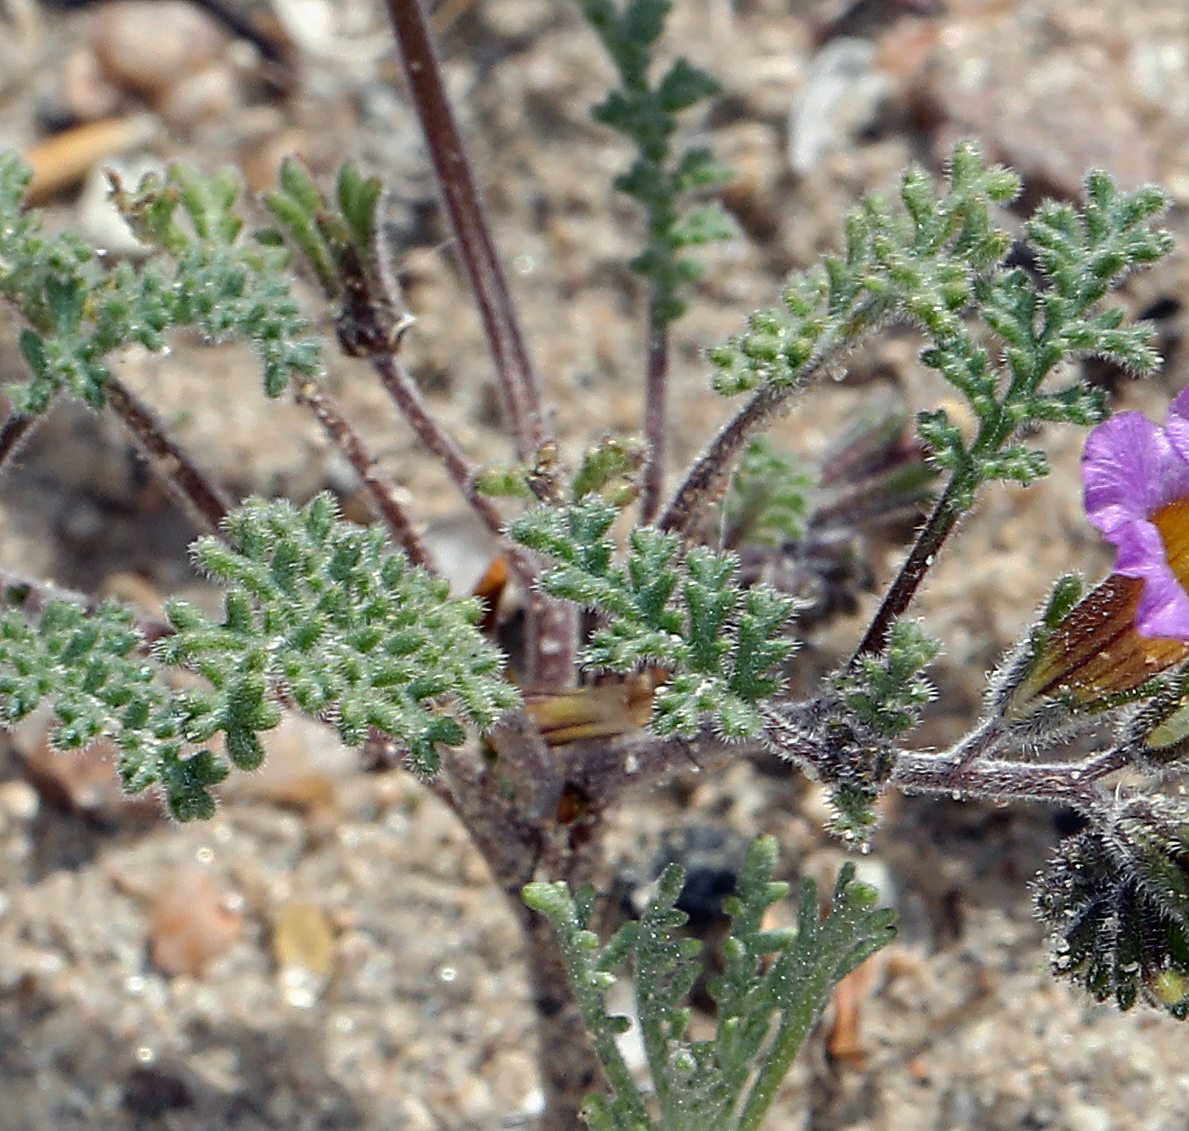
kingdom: Plantae
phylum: Tracheophyta
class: Magnoliopsida
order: Boraginales
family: Hydrophyllaceae
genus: Phacelia
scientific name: Phacelia bicolor
